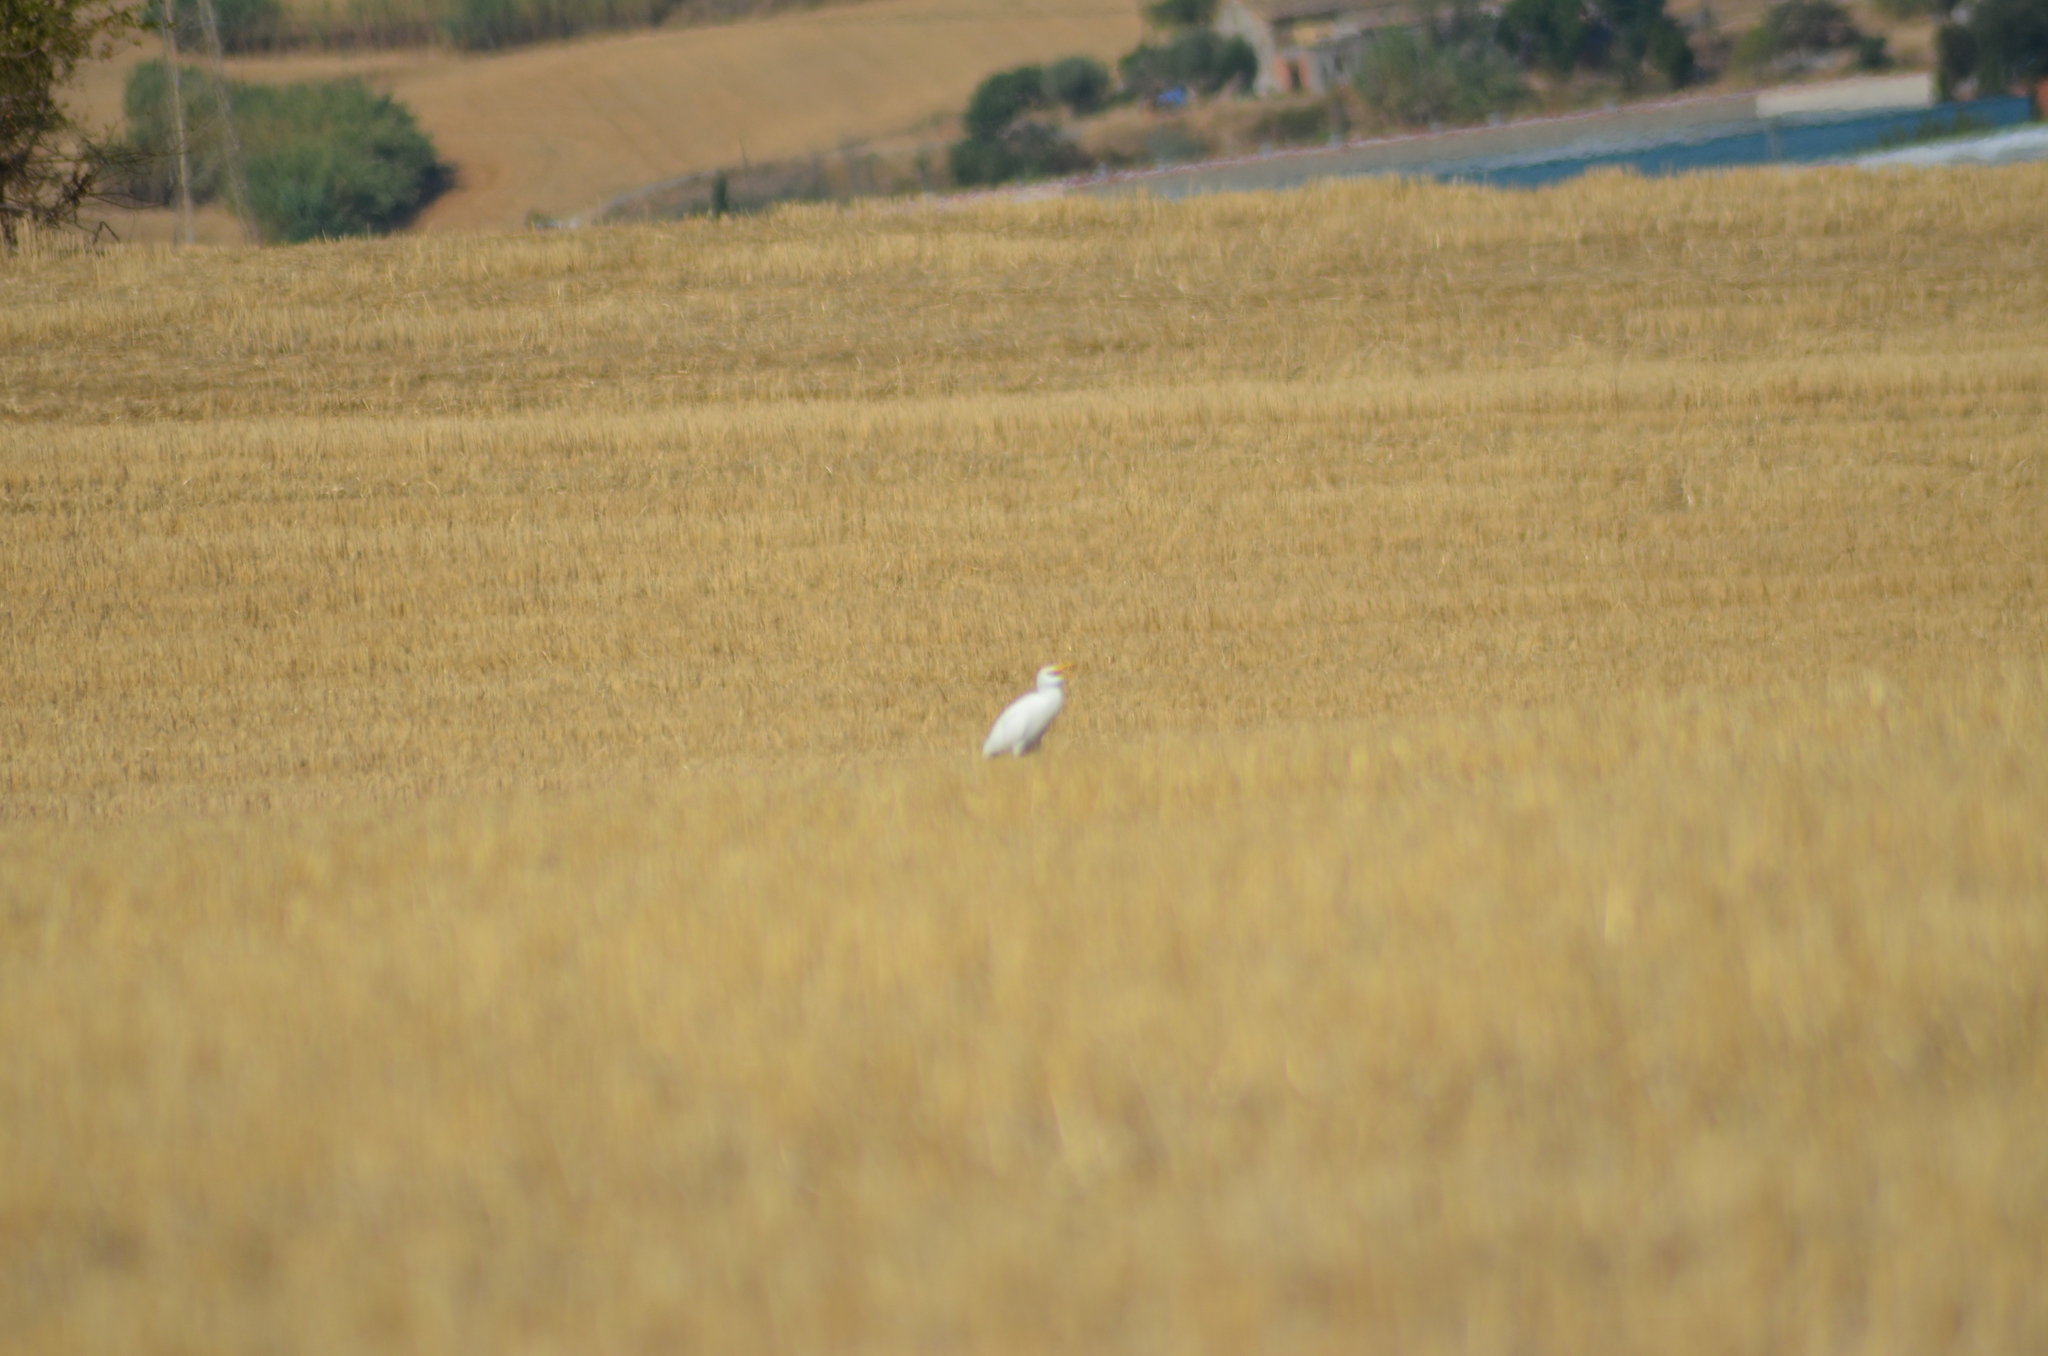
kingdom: Animalia
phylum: Chordata
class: Aves
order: Pelecaniformes
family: Ardeidae
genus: Bubulcus
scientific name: Bubulcus ibis
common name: Cattle egret
